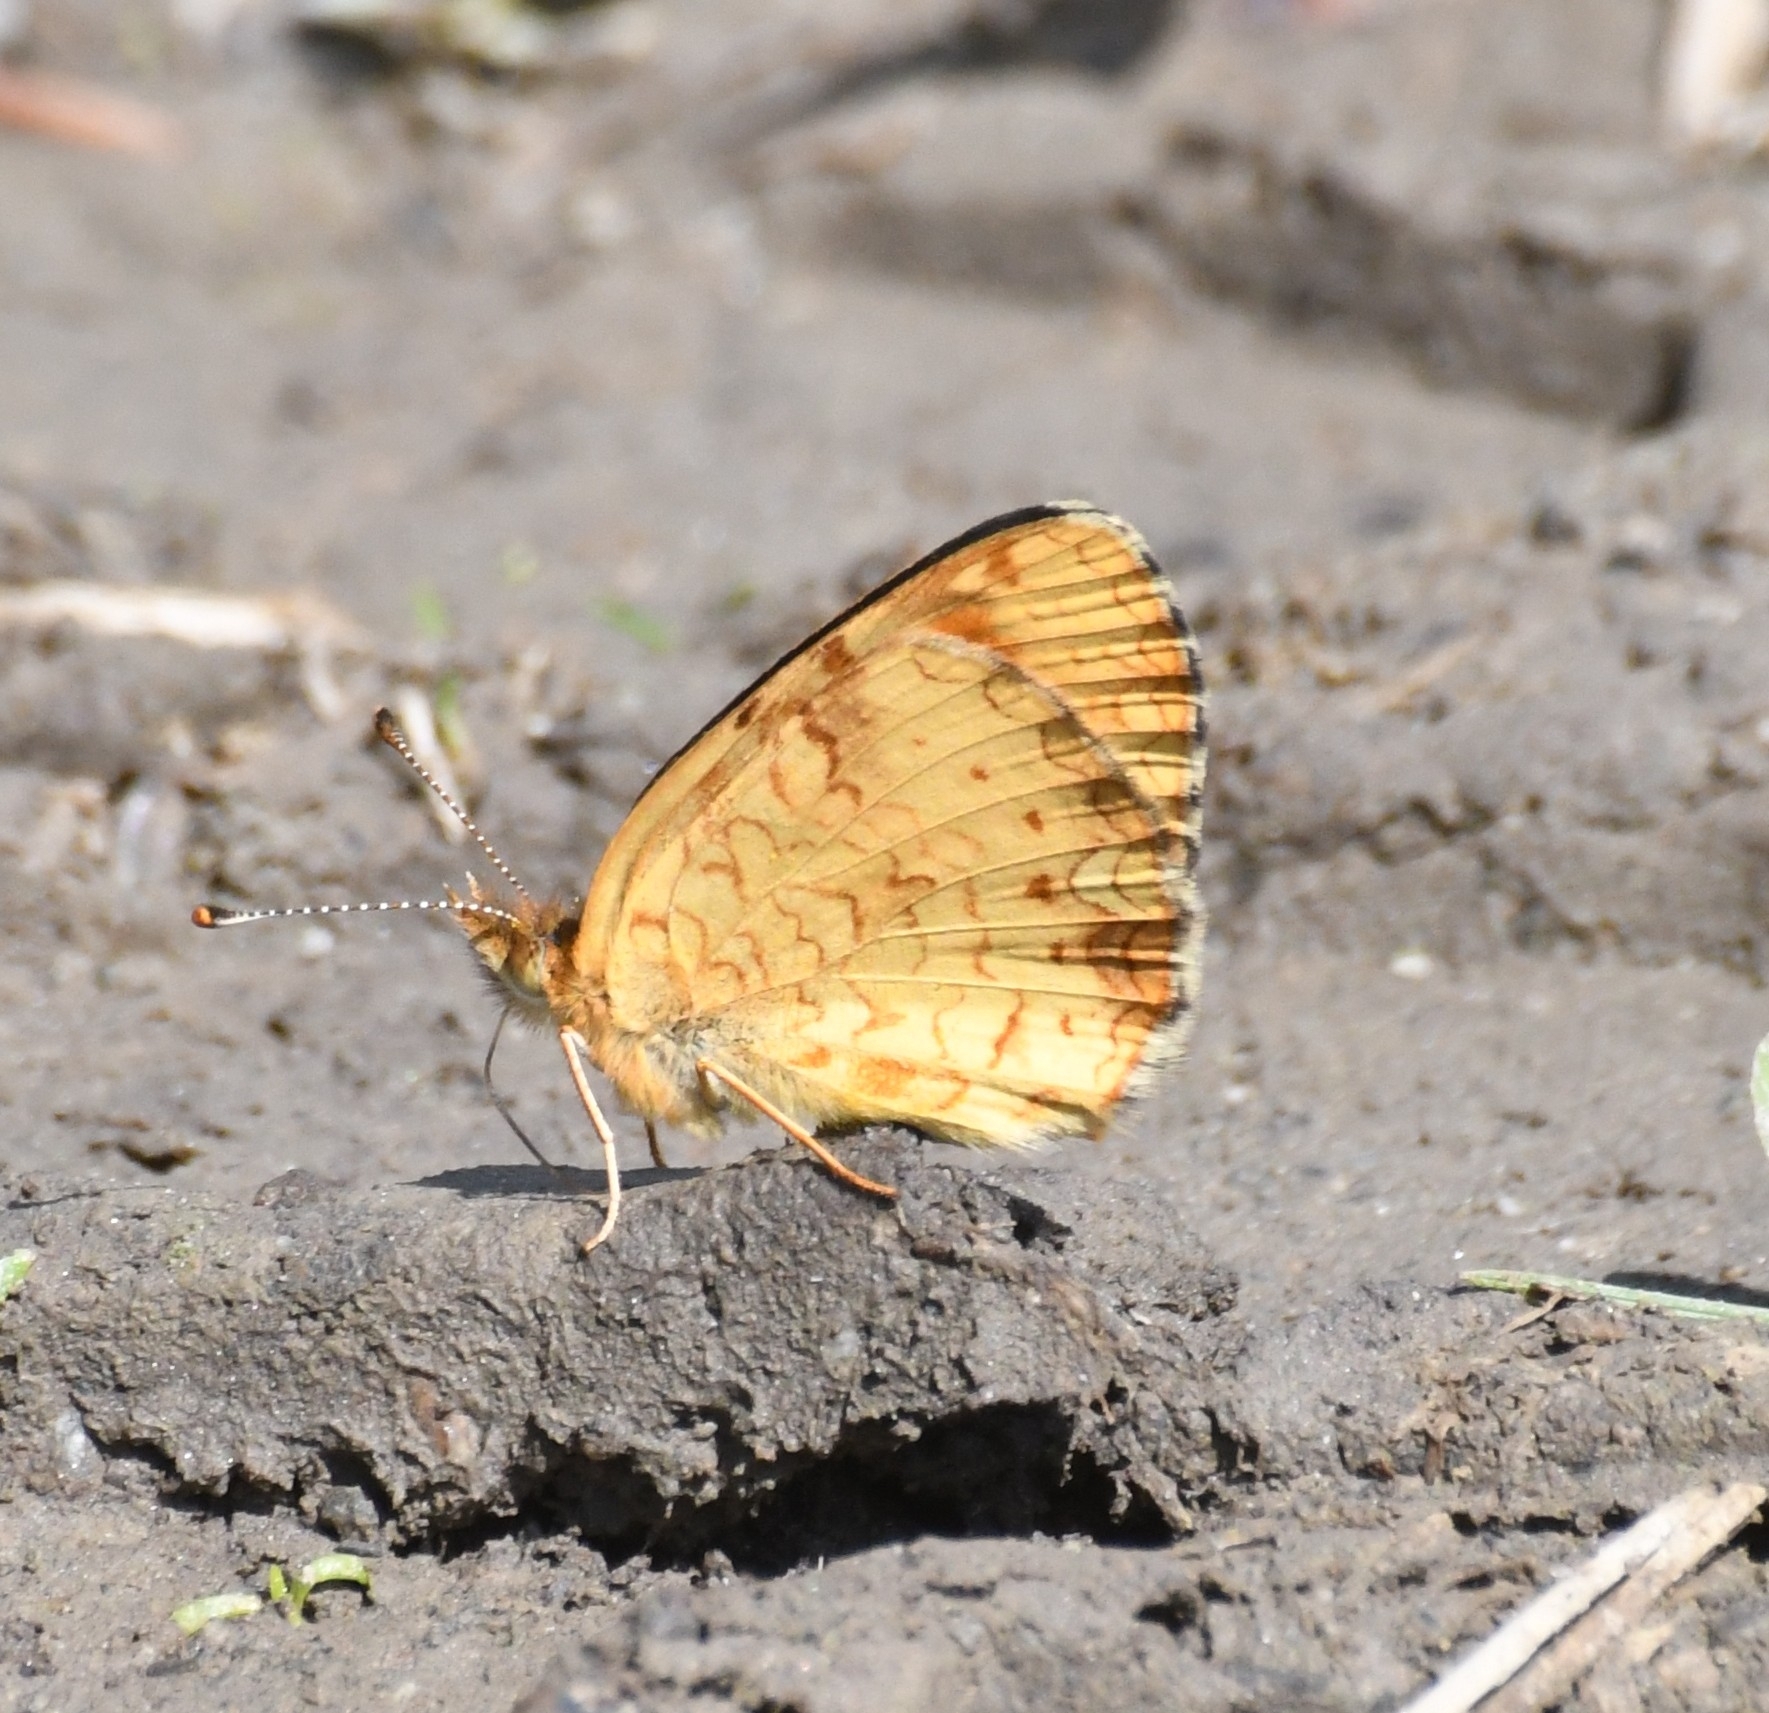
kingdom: Animalia
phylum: Arthropoda
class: Insecta
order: Lepidoptera
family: Nymphalidae
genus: Phyciodes
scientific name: Phyciodes tharos
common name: Pearl crescent
